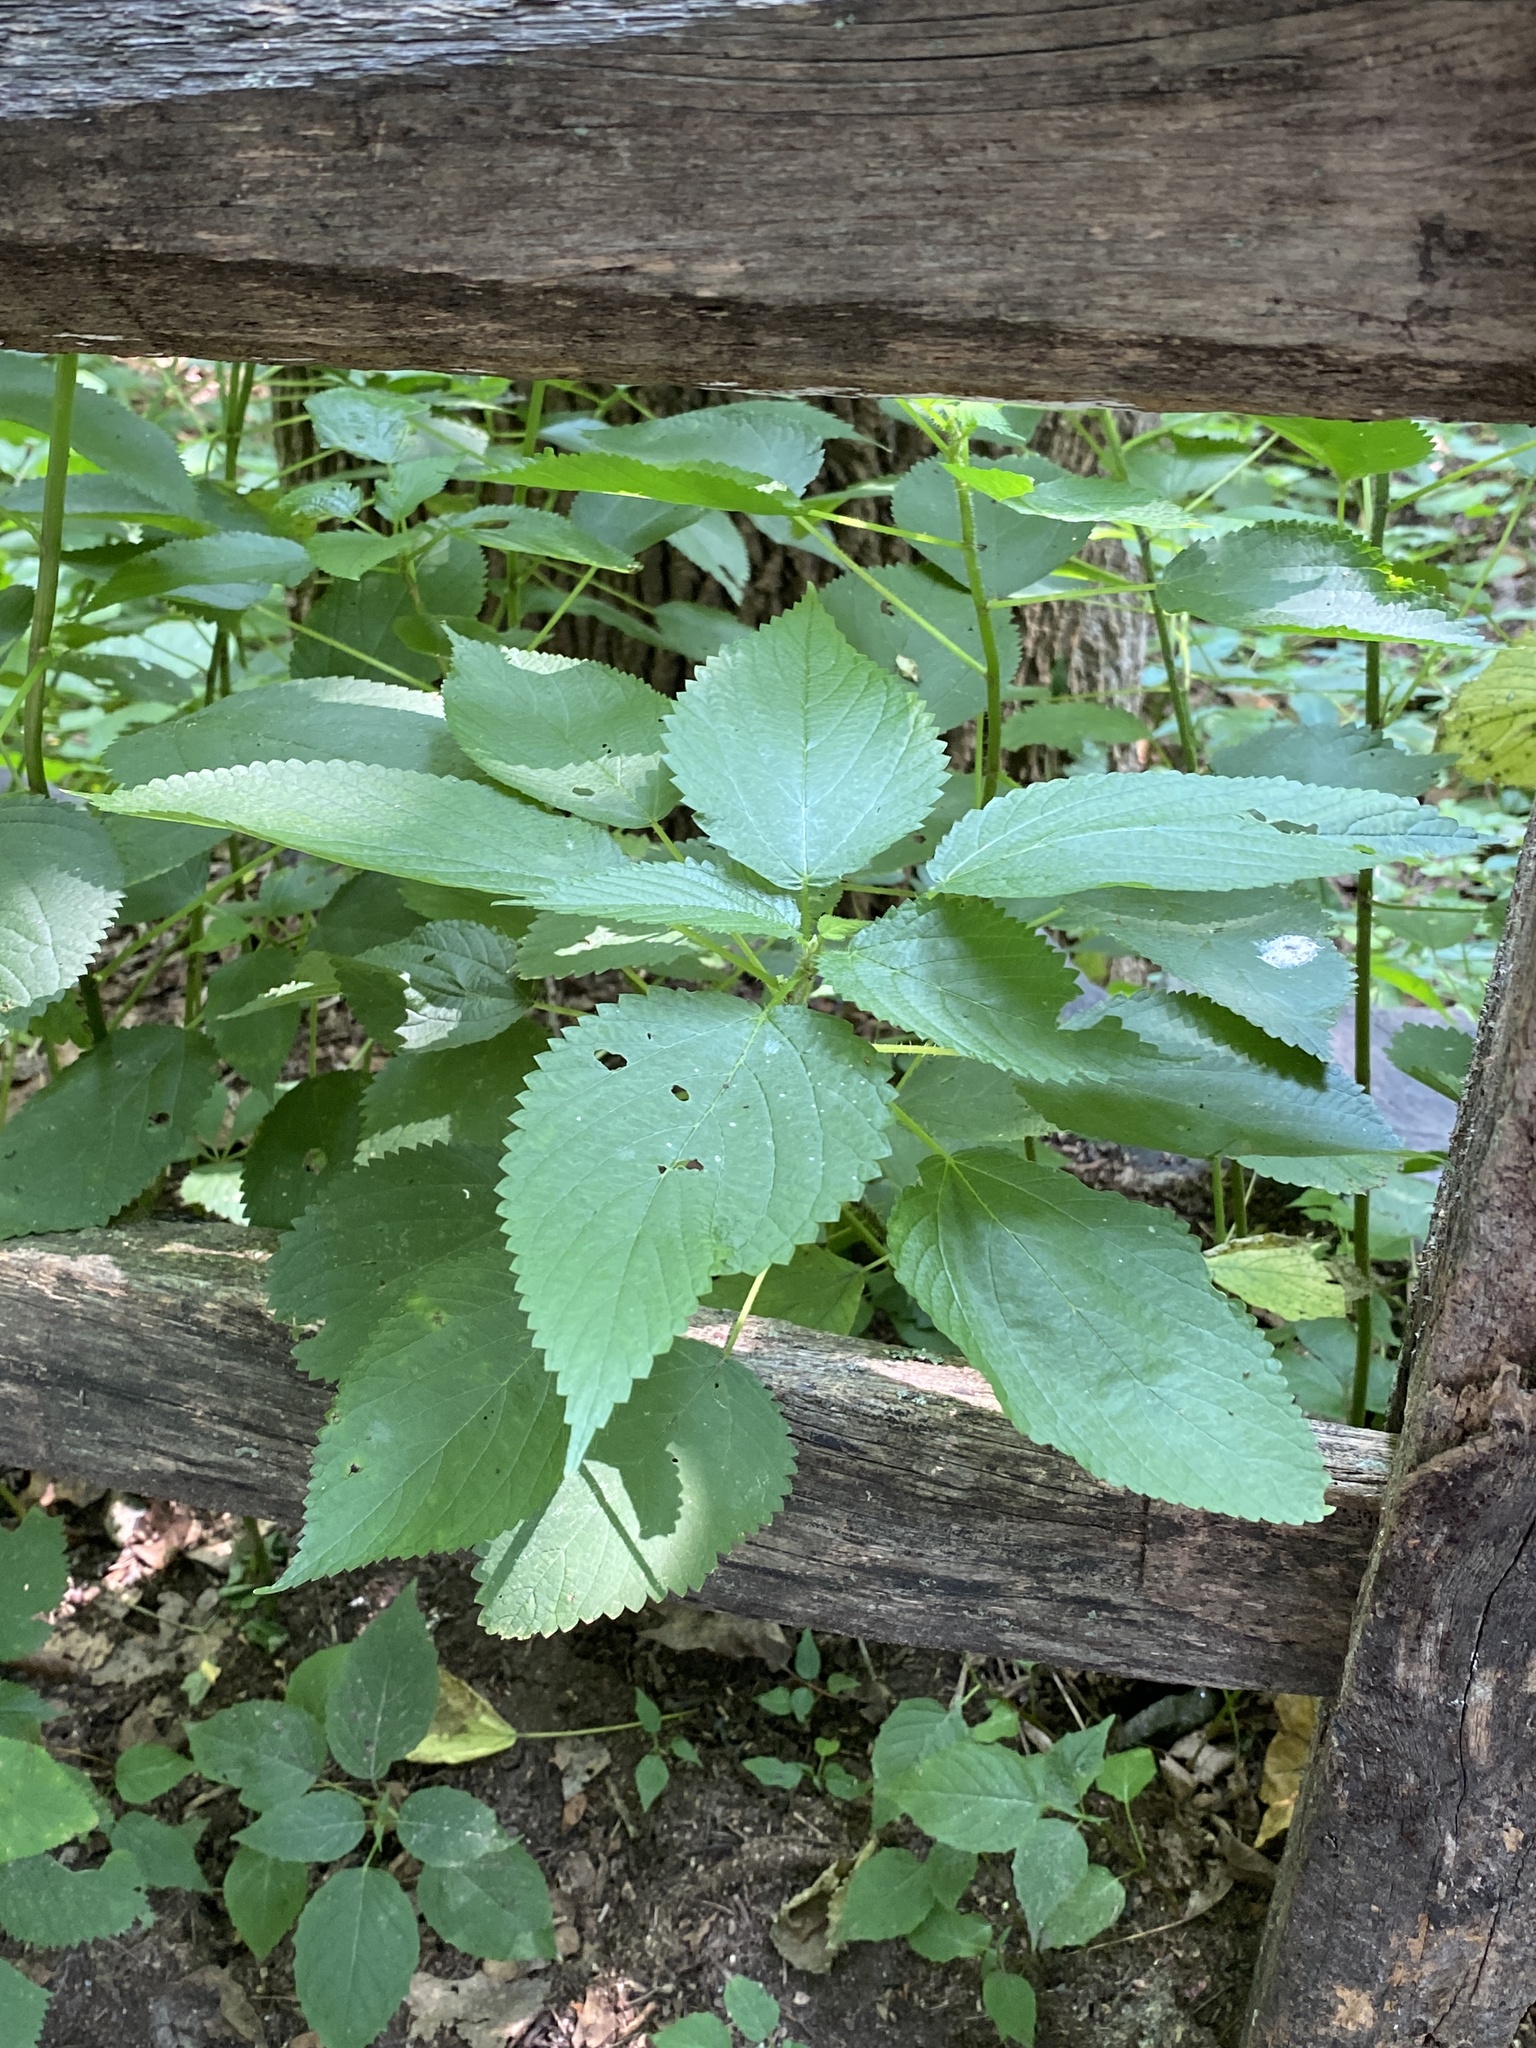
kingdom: Plantae
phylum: Tracheophyta
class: Magnoliopsida
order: Rosales
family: Urticaceae
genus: Laportea
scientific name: Laportea canadensis
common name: Canada nettle
